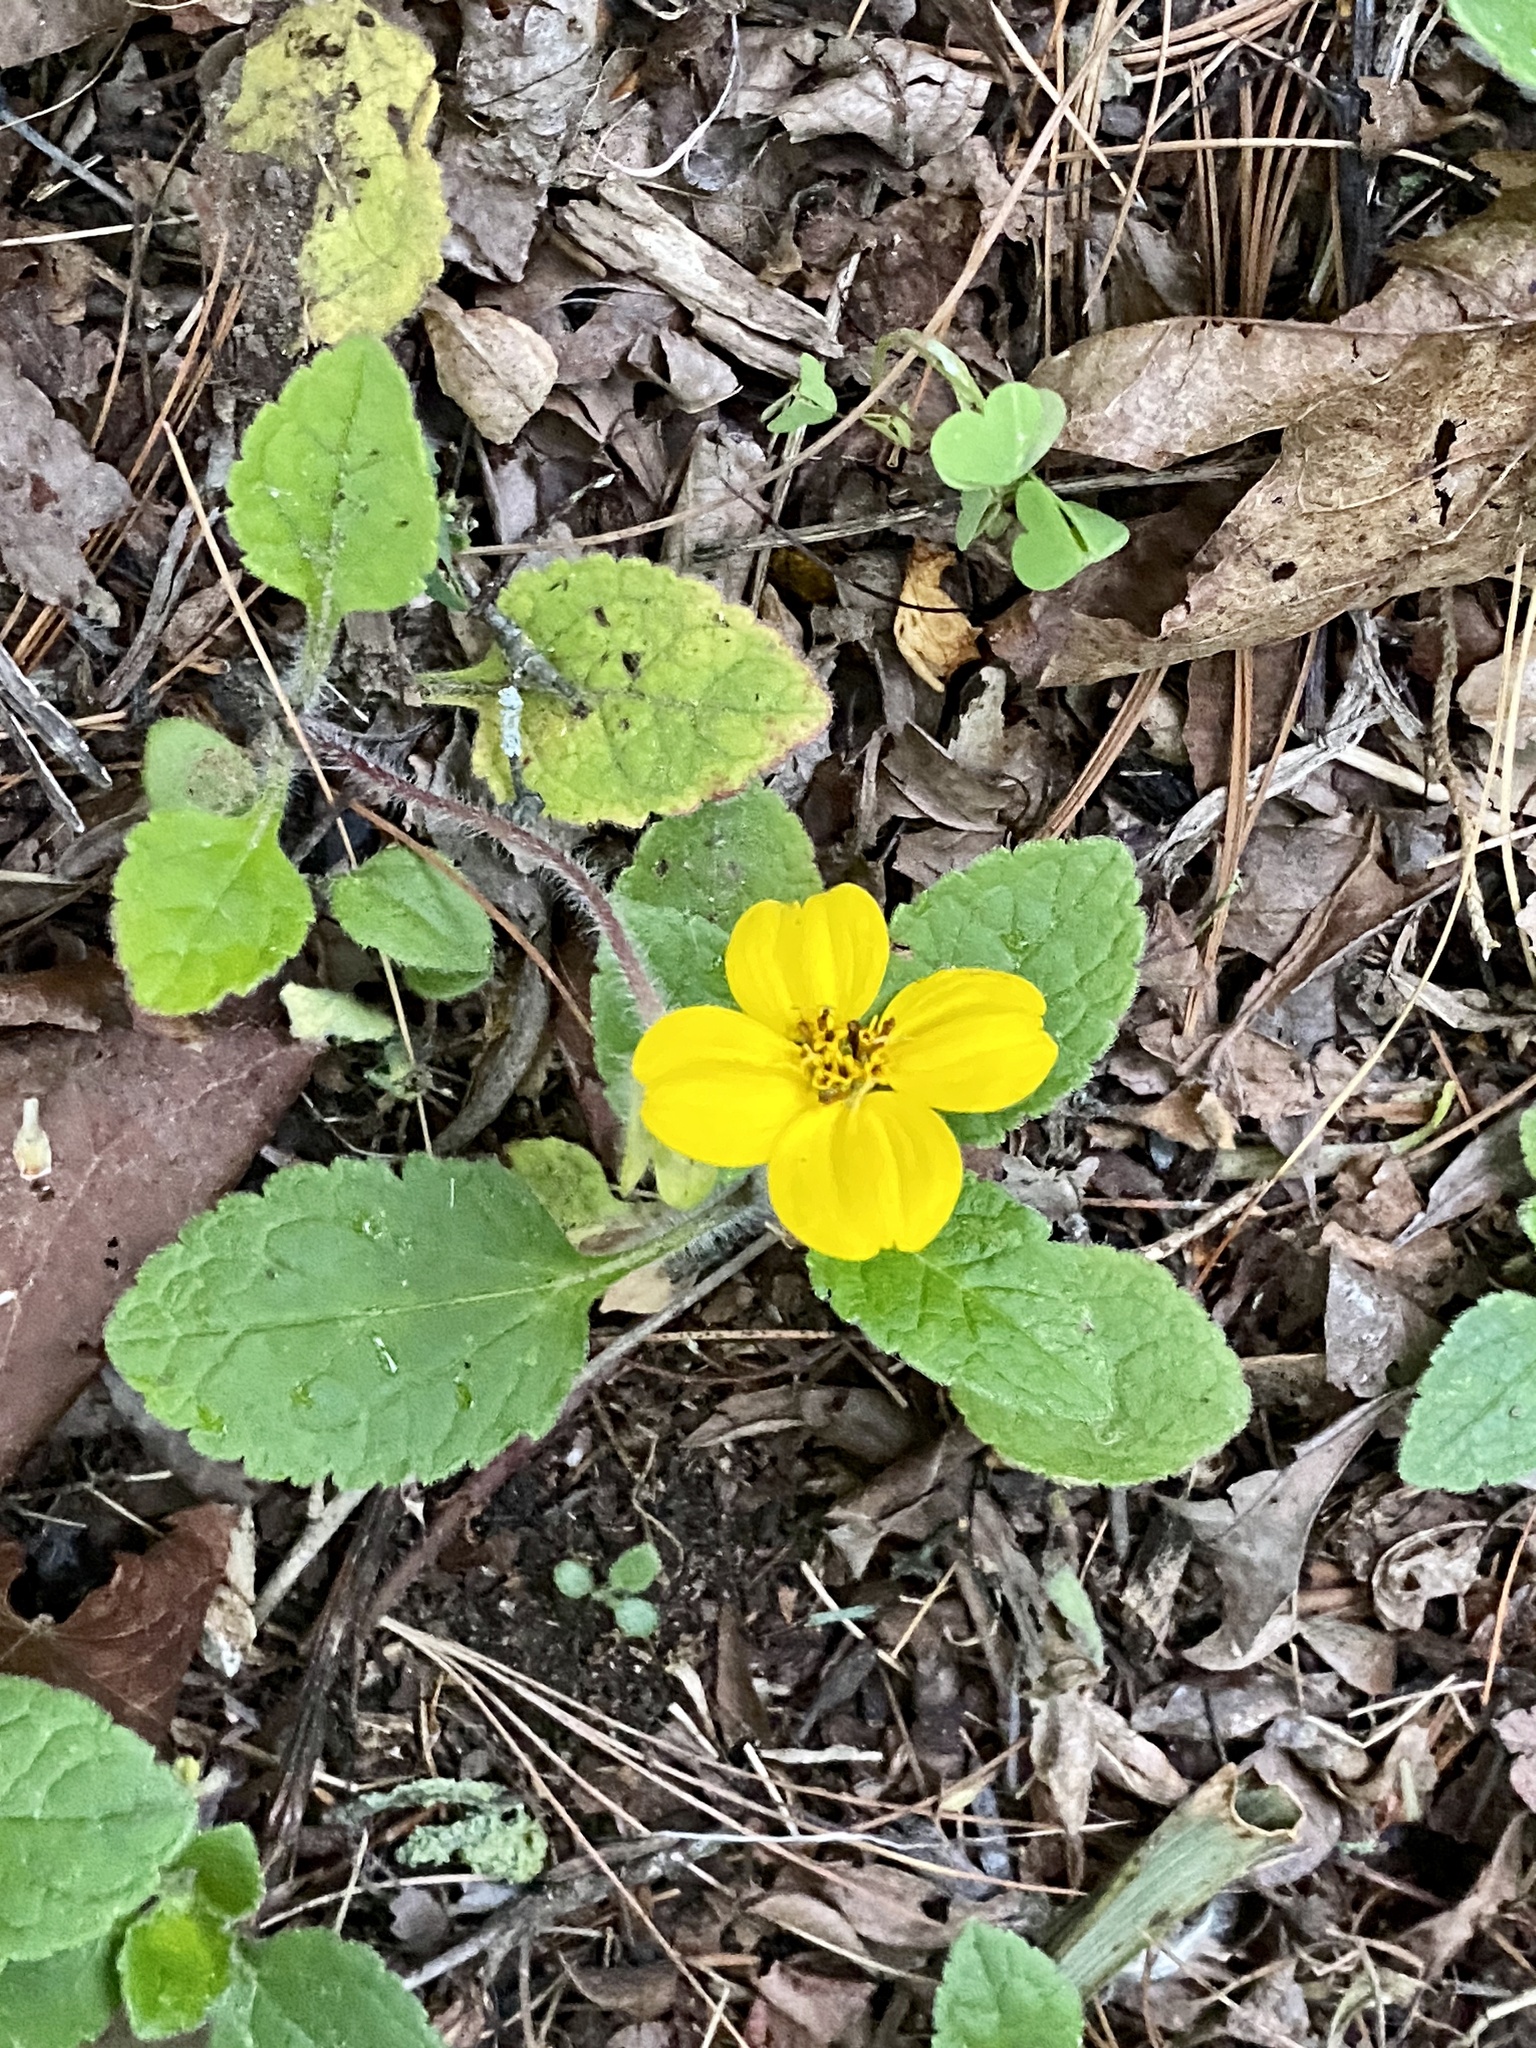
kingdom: Plantae
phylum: Tracheophyta
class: Magnoliopsida
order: Asterales
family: Asteraceae
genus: Chrysogonum
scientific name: Chrysogonum virginianum
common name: Golden-knee
